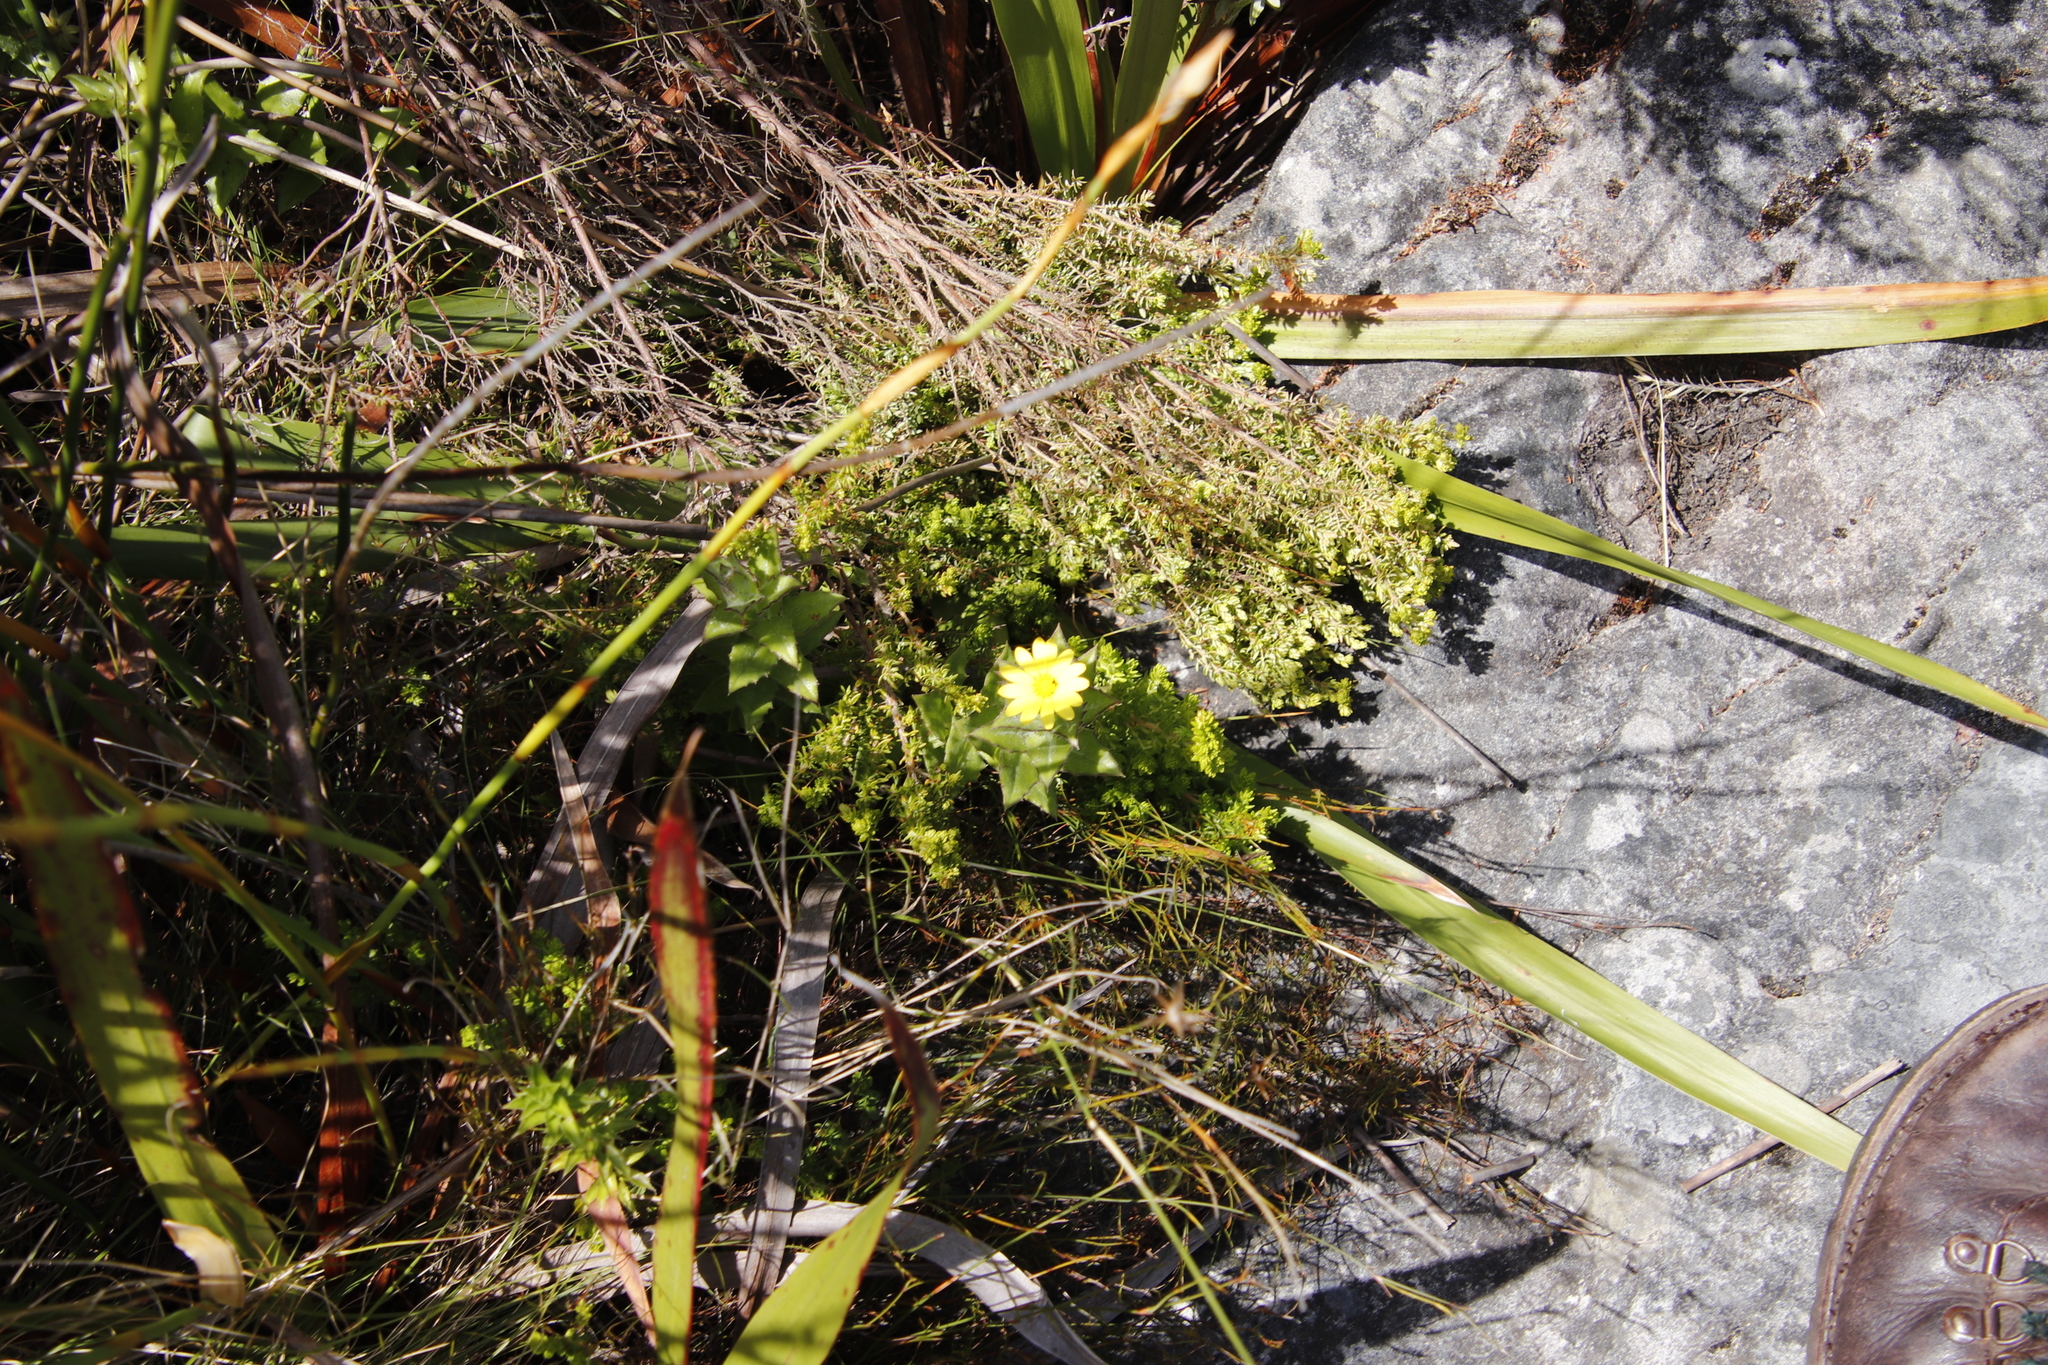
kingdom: Plantae
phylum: Tracheophyta
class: Magnoliopsida
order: Asterales
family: Asteraceae
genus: Osteospermum
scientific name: Osteospermum ilicifolium
